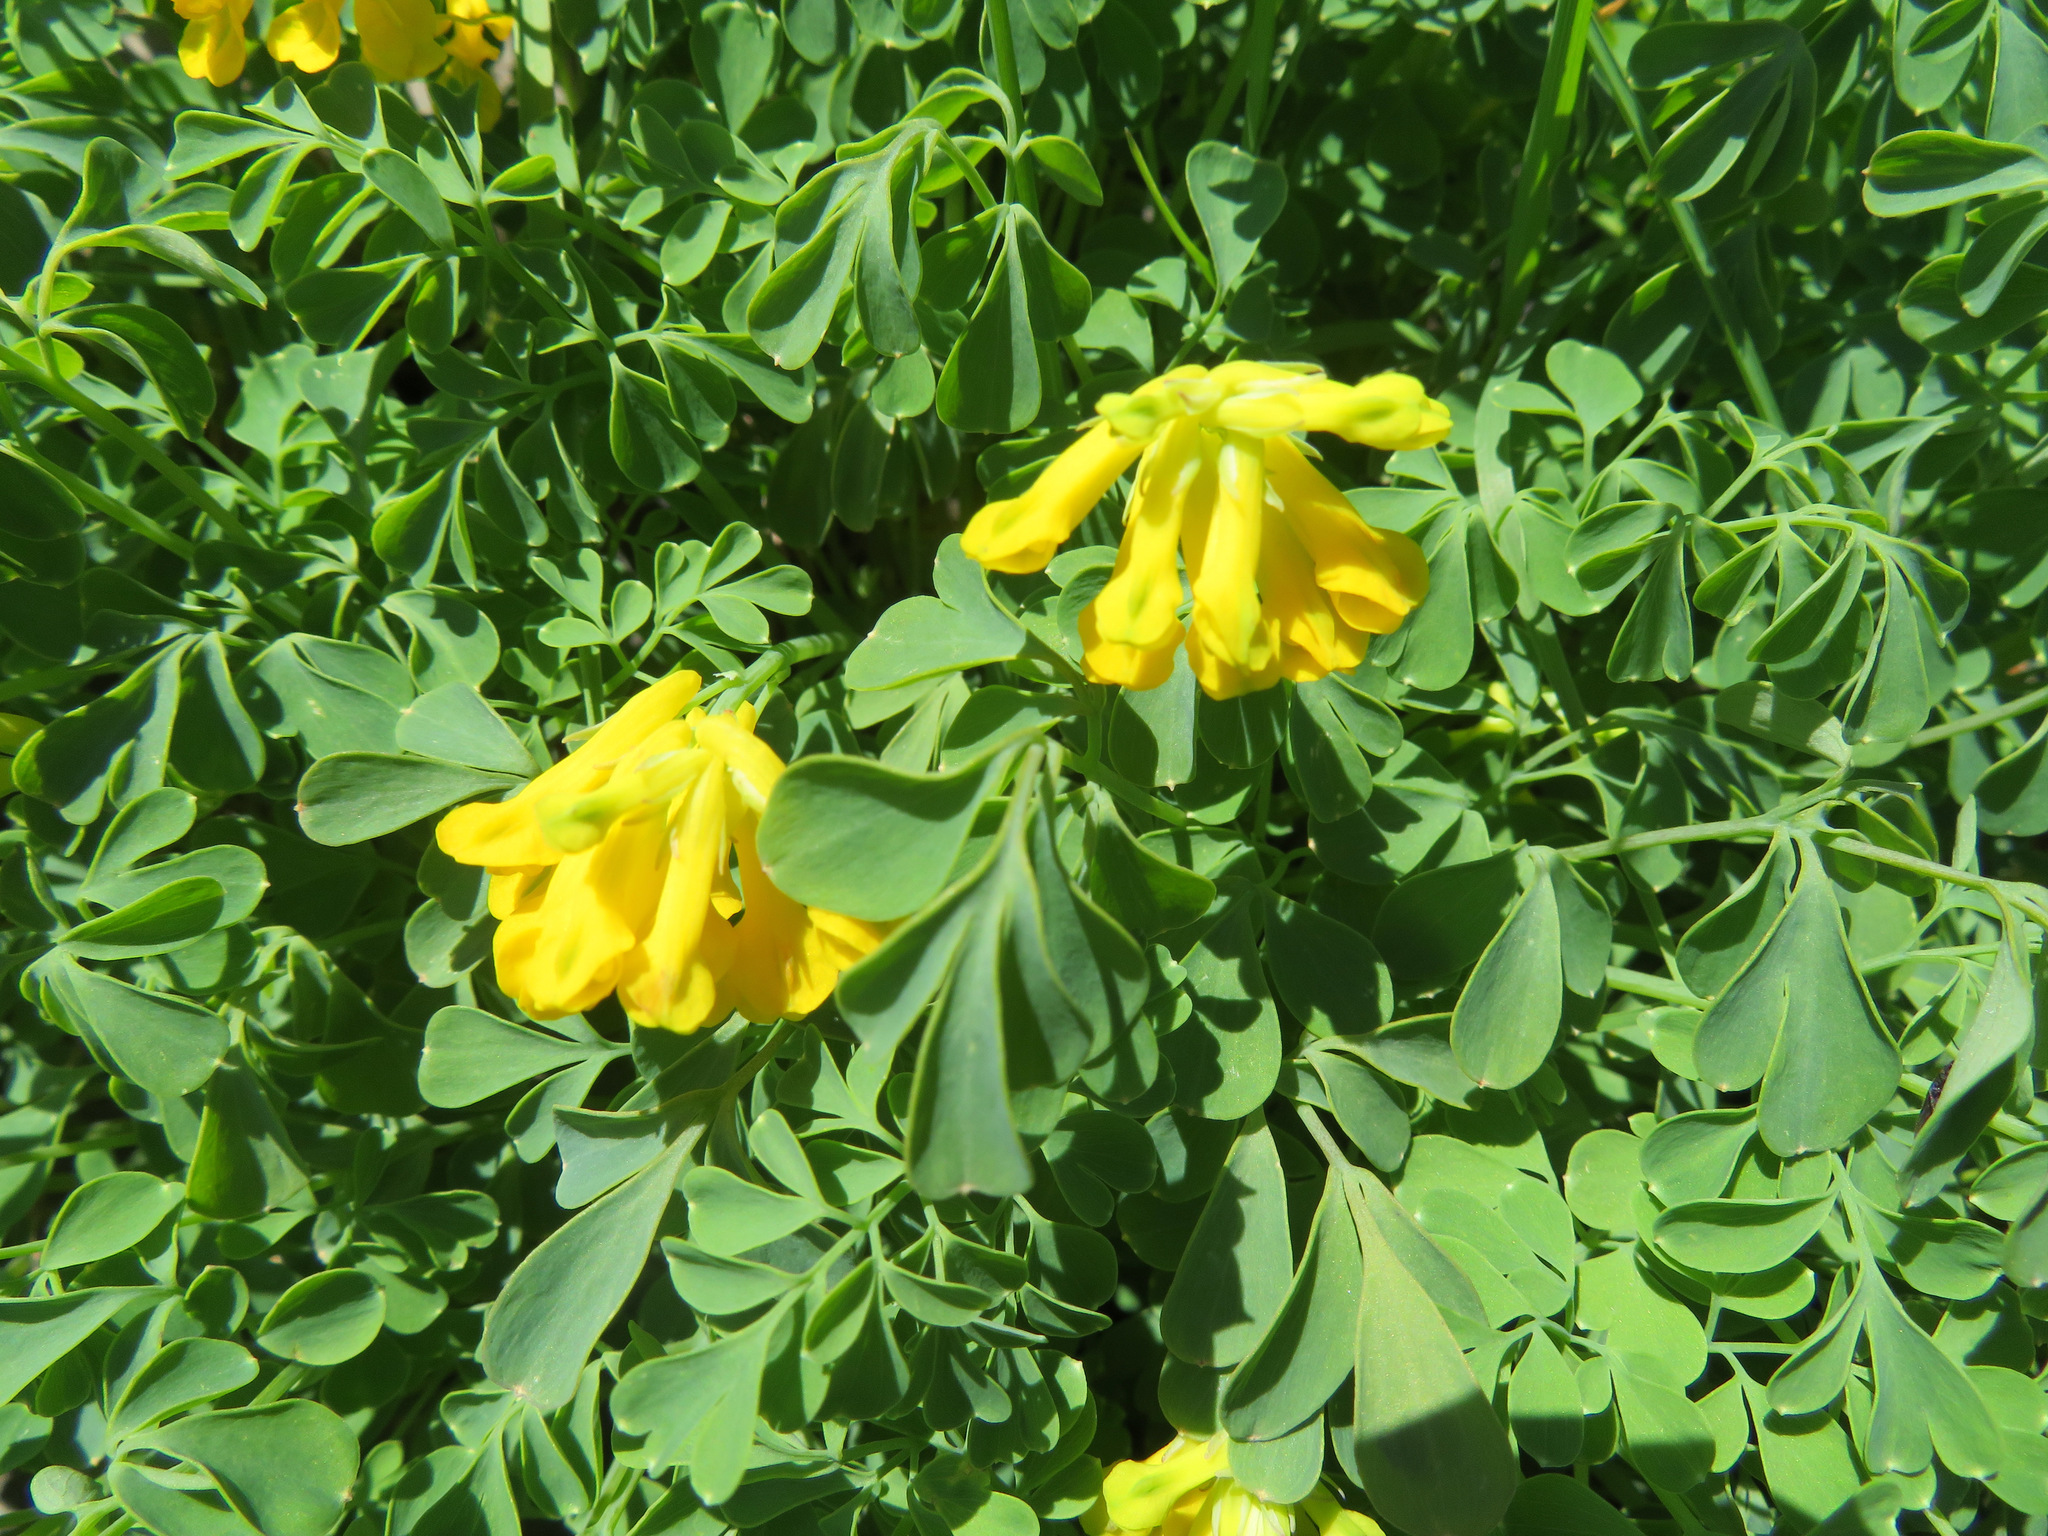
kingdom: Plantae
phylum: Tracheophyta
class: Magnoliopsida
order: Ranunculales
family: Papaveraceae
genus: Pseudofumaria
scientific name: Pseudofumaria lutea
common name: Yellow corydalis
